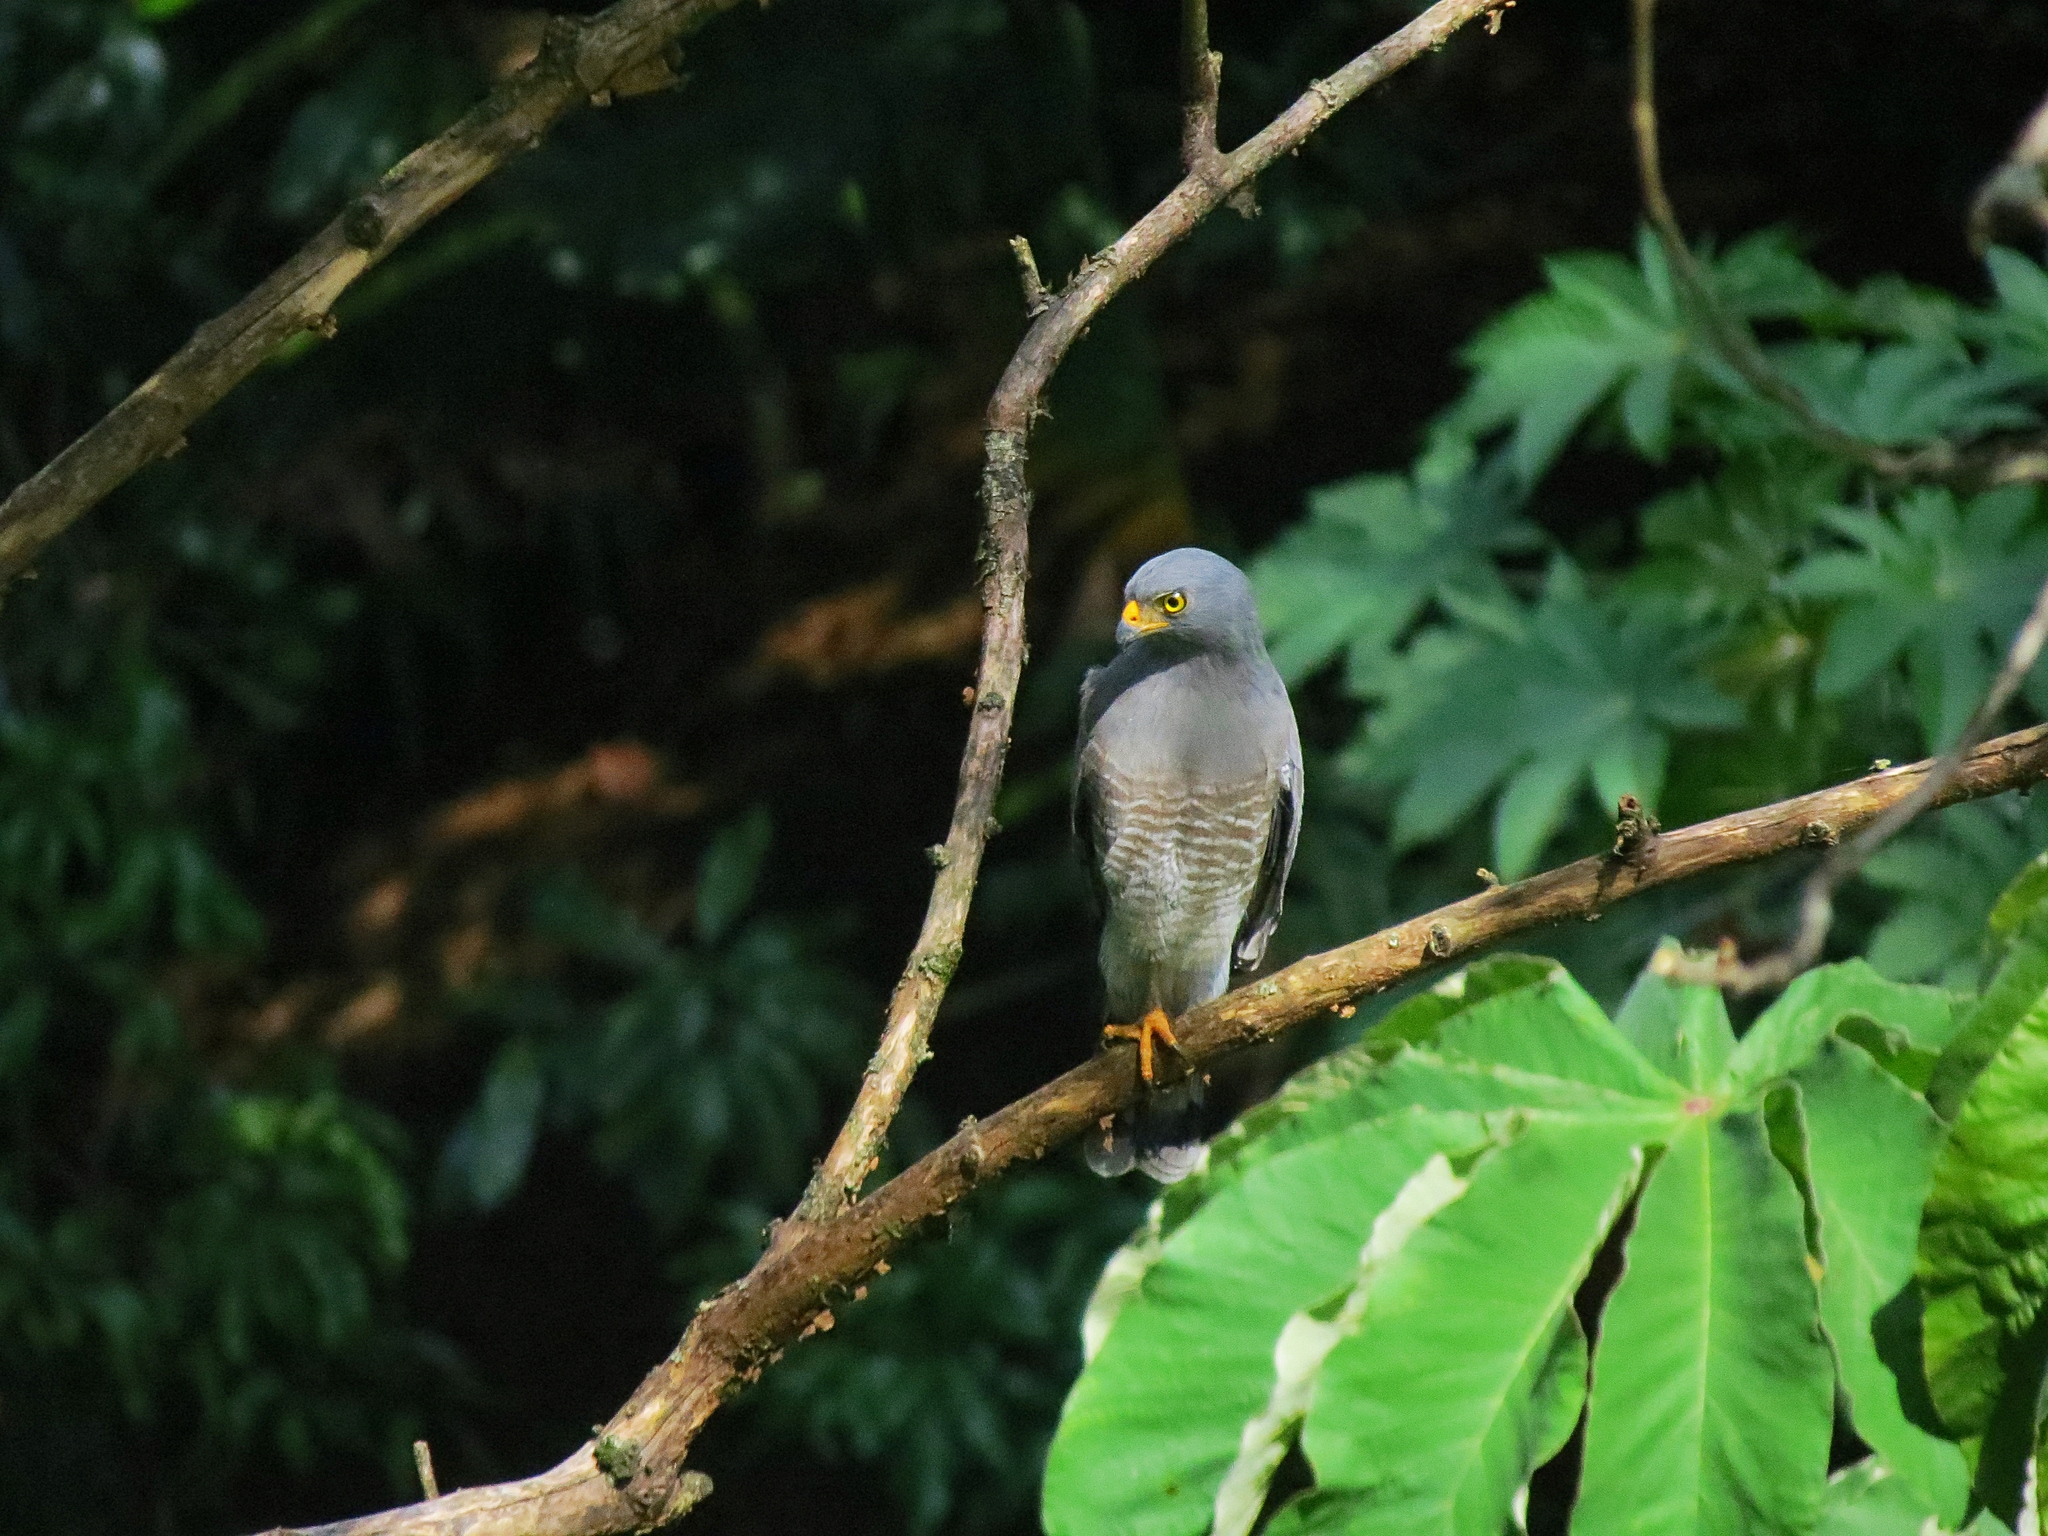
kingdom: Animalia
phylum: Chordata
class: Aves
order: Accipitriformes
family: Accipitridae
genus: Rupornis
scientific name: Rupornis magnirostris
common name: Roadside hawk
